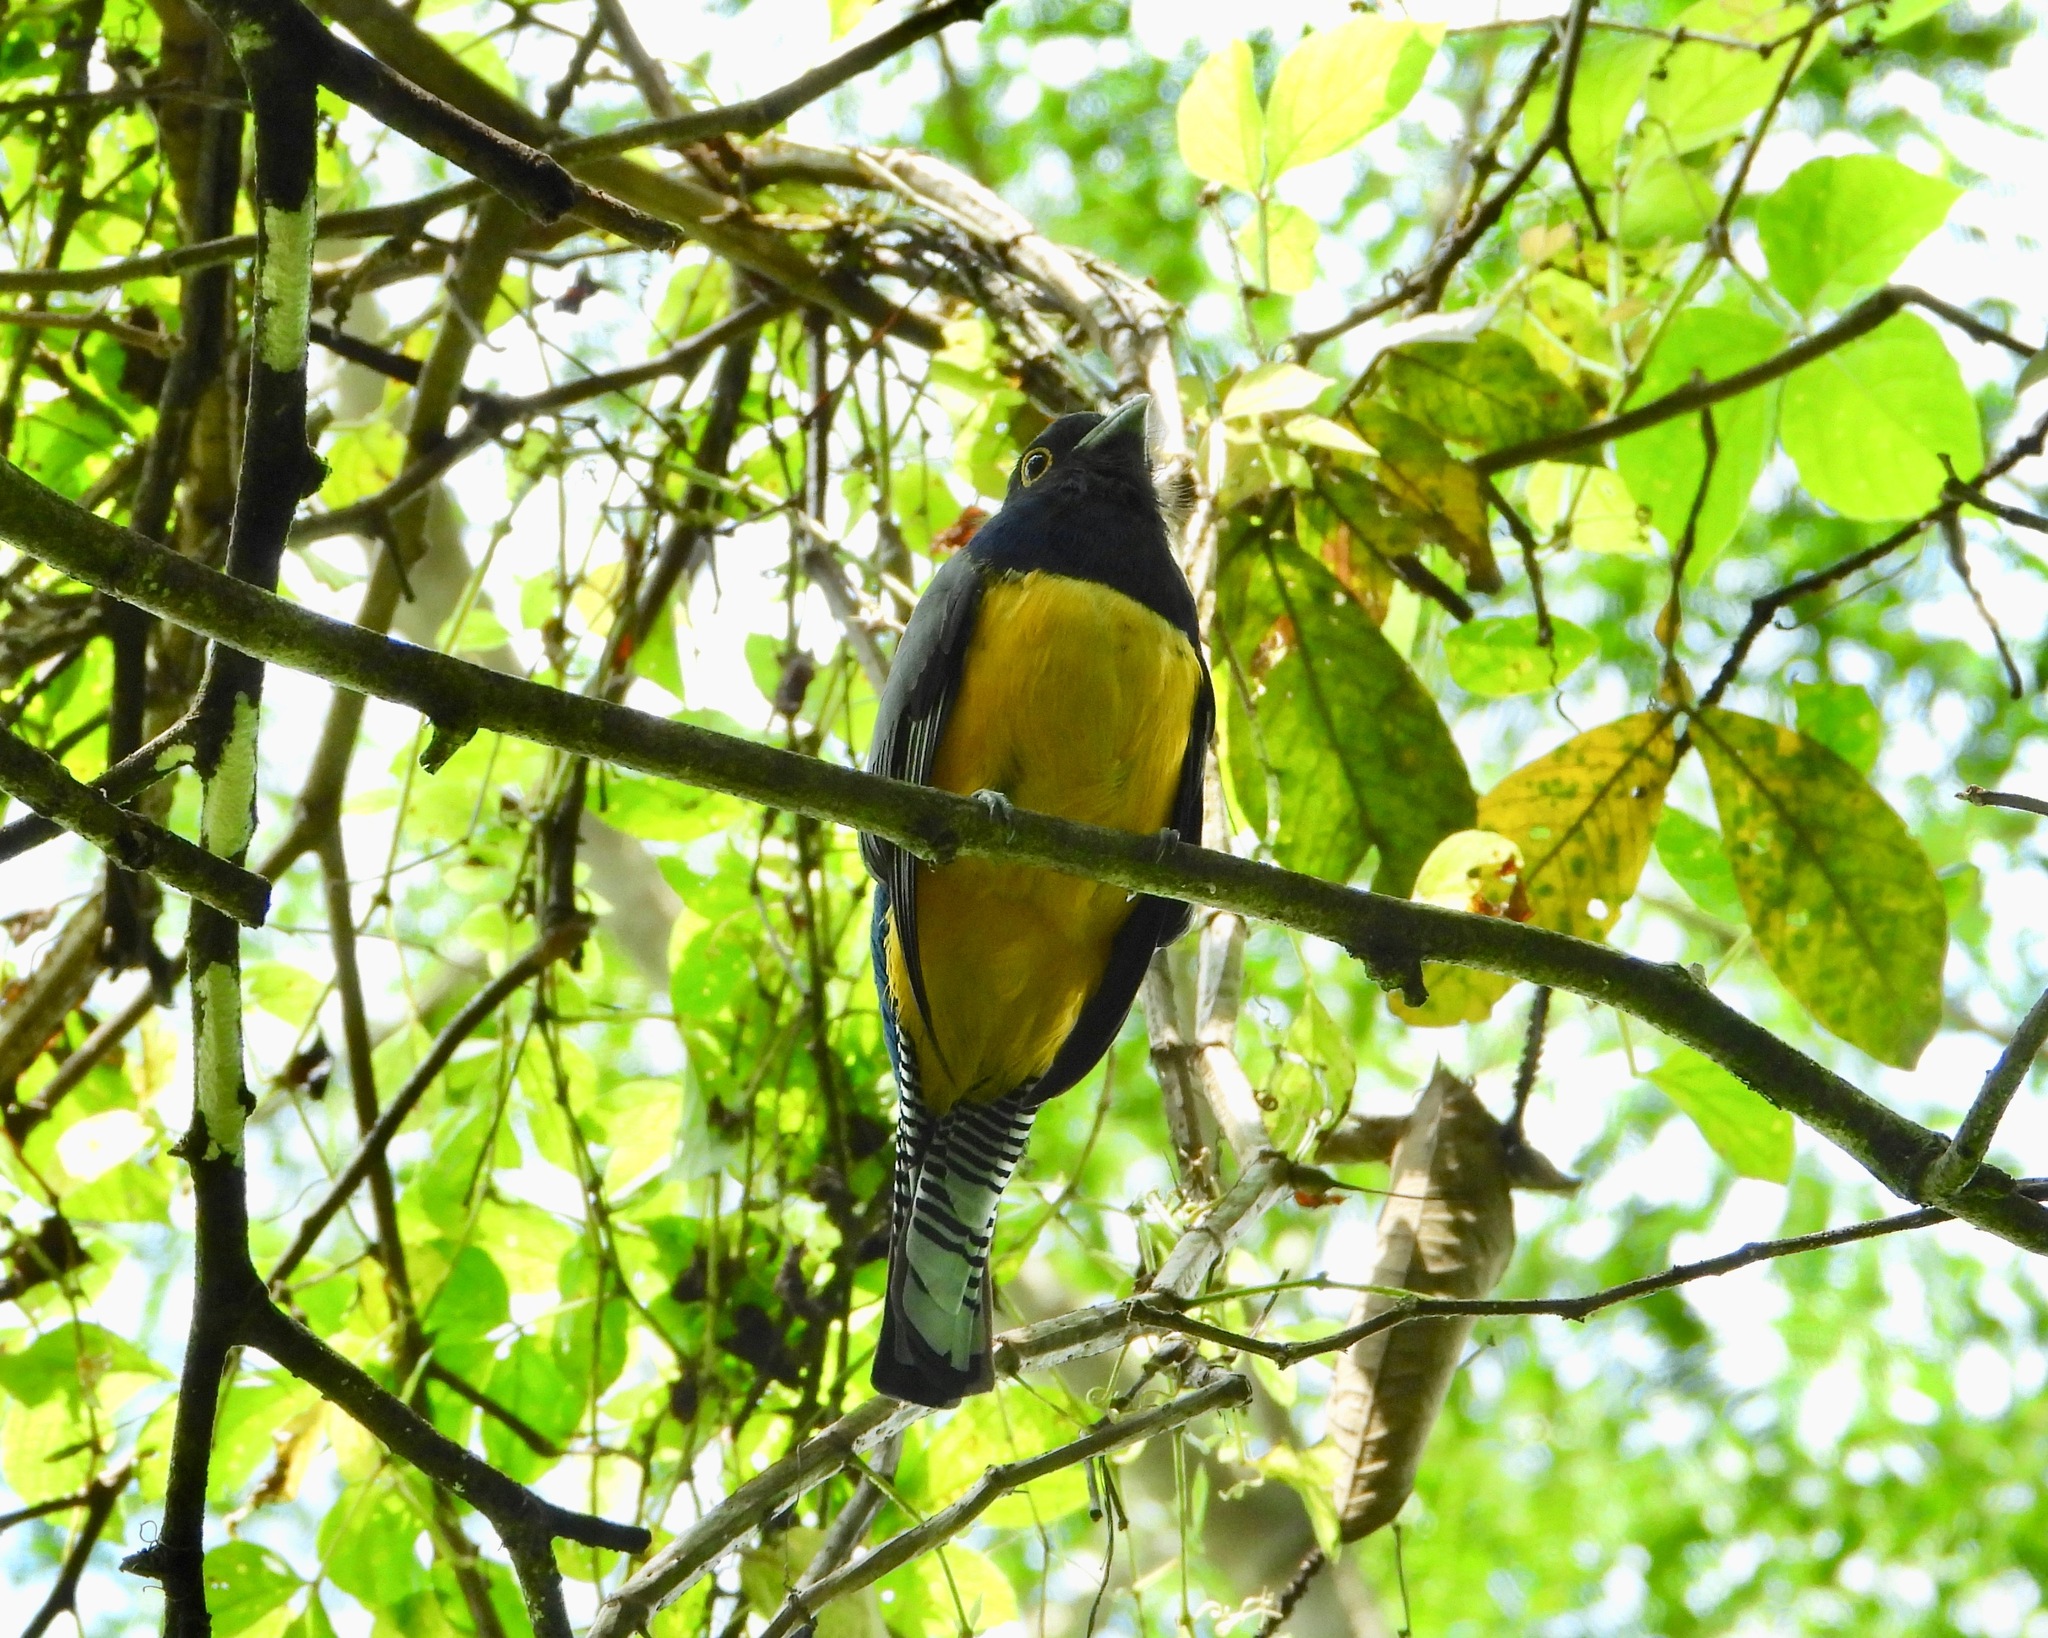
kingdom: Animalia
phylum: Chordata
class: Aves
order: Trogoniformes
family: Trogonidae
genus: Trogon
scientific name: Trogon caligatus
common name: Gartered trogon
